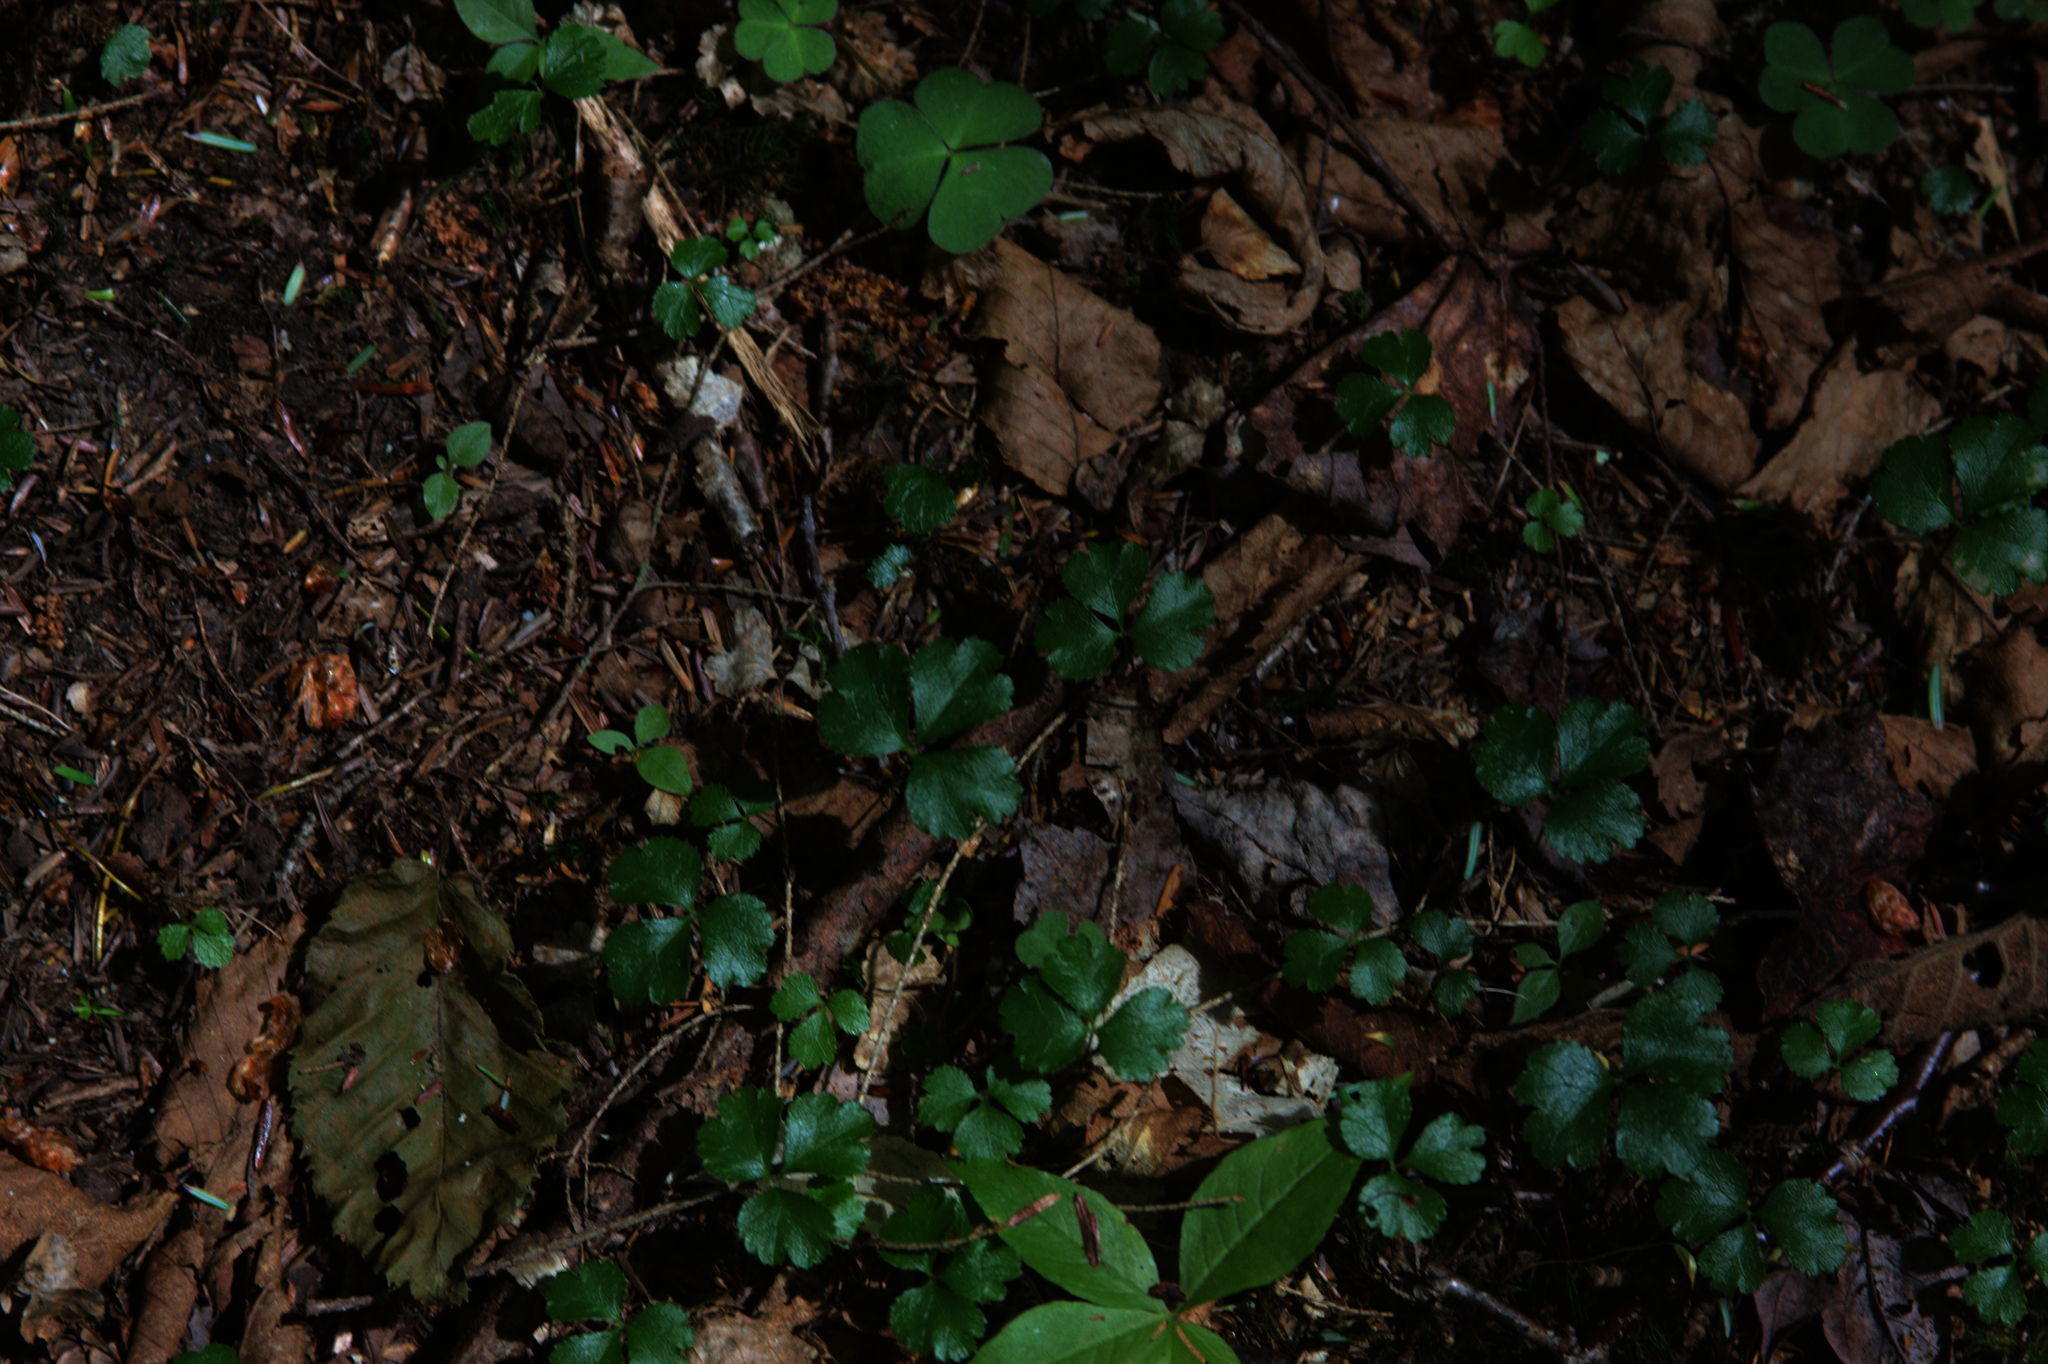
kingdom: Plantae
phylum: Tracheophyta
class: Magnoliopsida
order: Ranunculales
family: Ranunculaceae
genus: Coptis
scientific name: Coptis trifolia
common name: Canker-root
